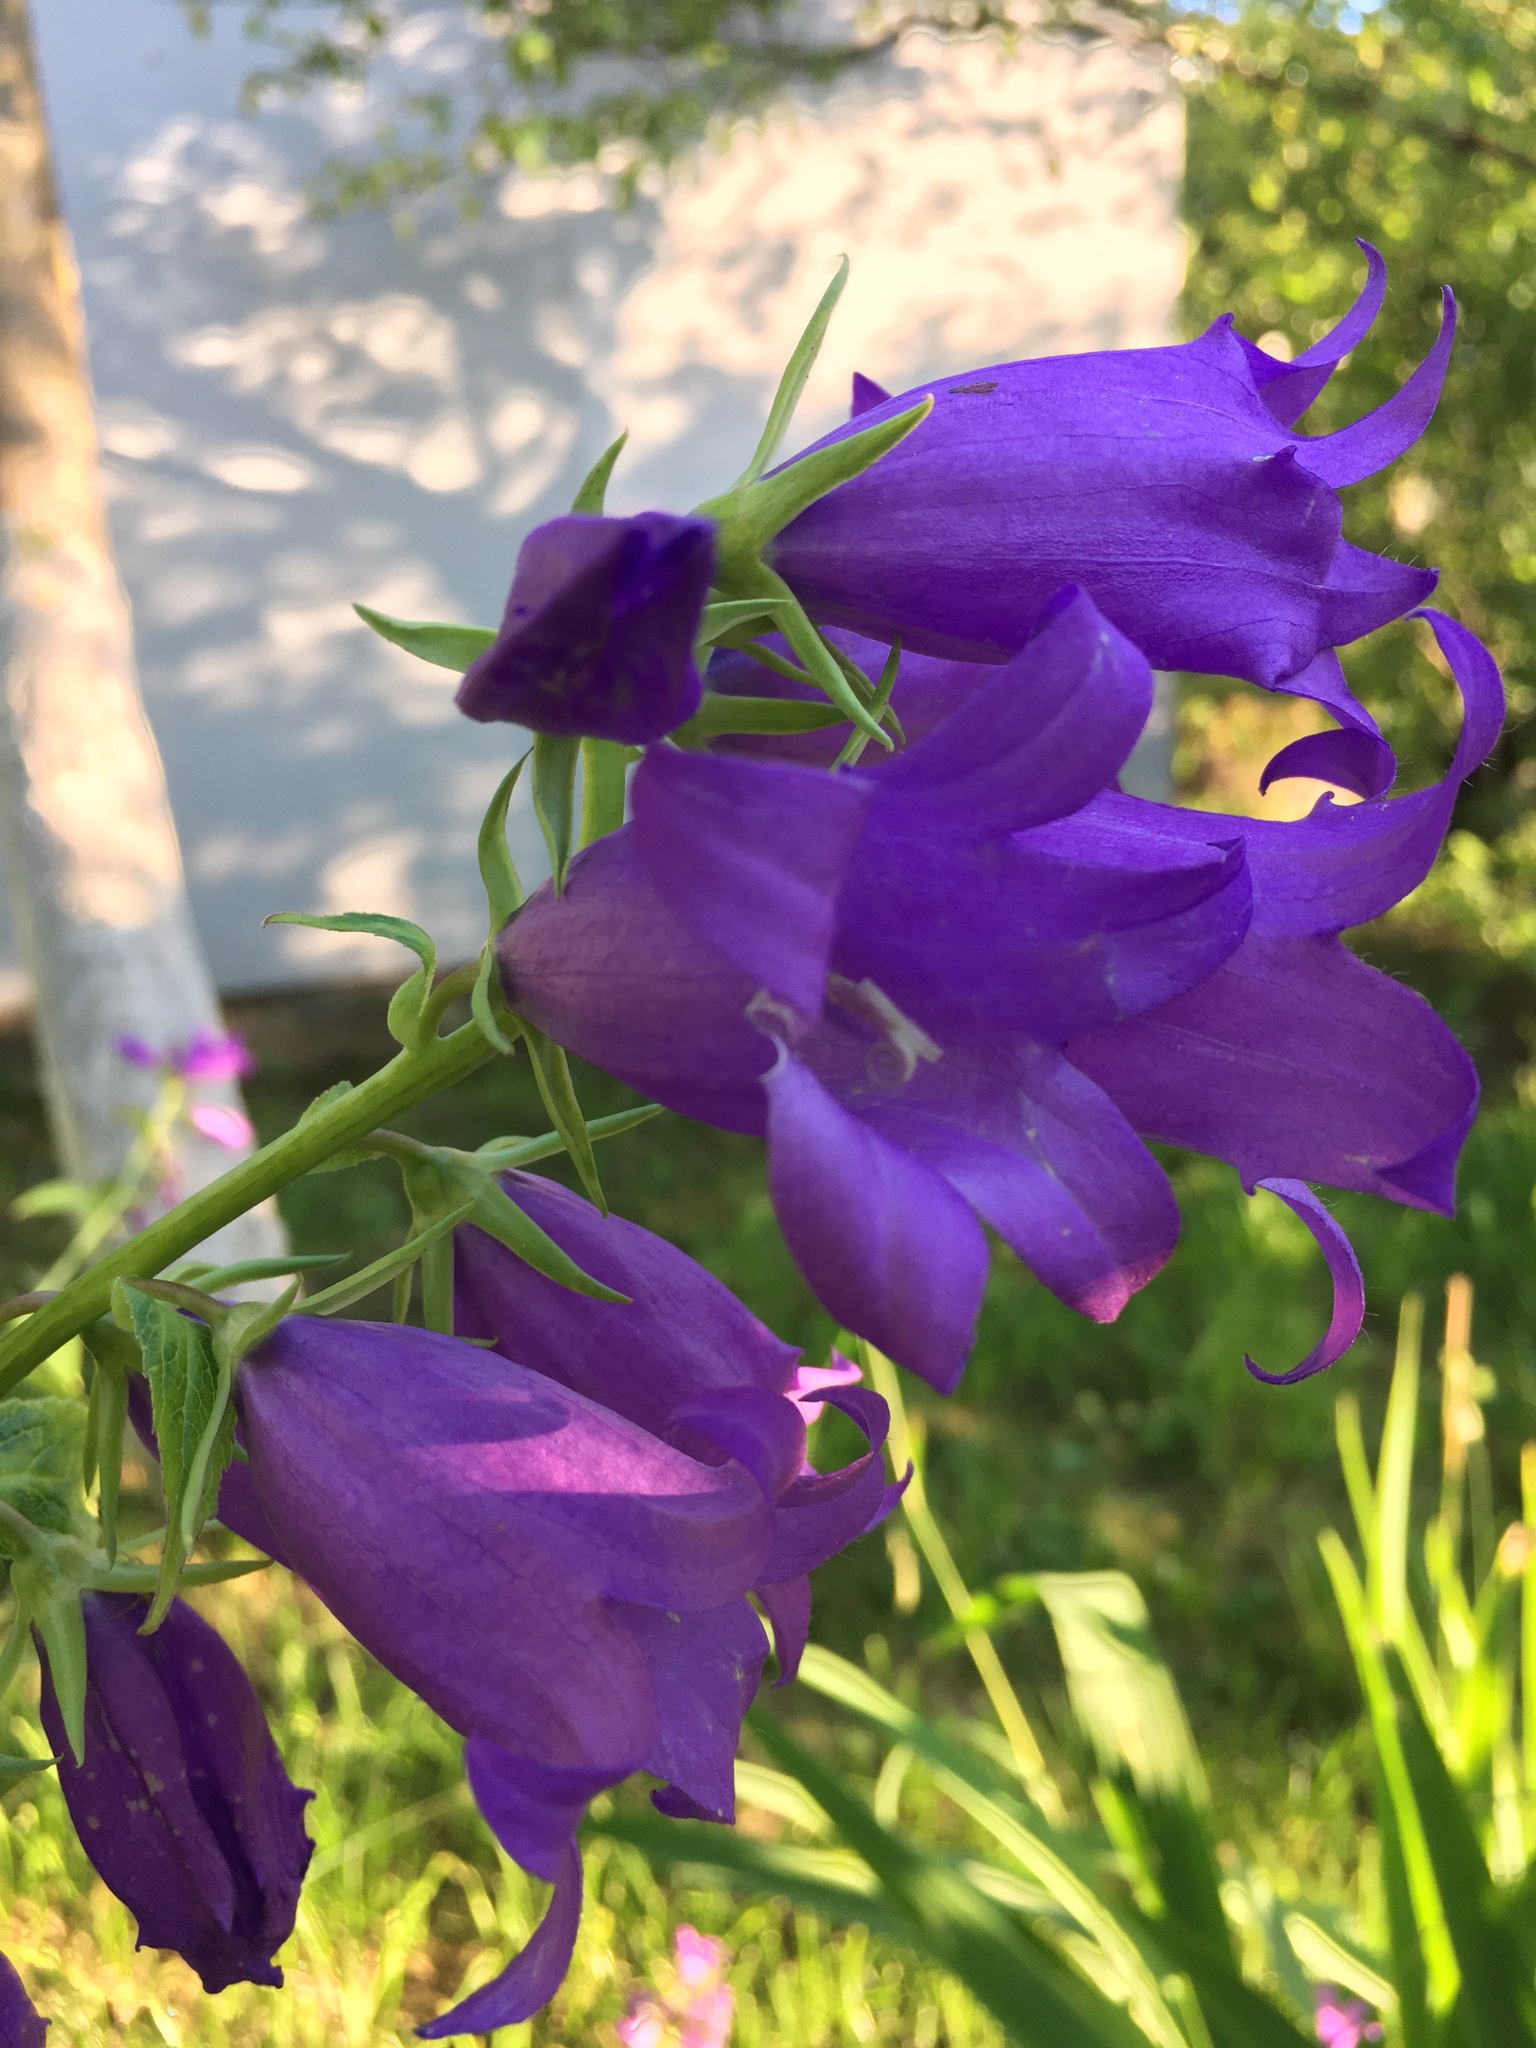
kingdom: Plantae
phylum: Tracheophyta
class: Magnoliopsida
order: Asterales
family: Campanulaceae
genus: Campanula
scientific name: Campanula latifolia
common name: Giant bellflower
